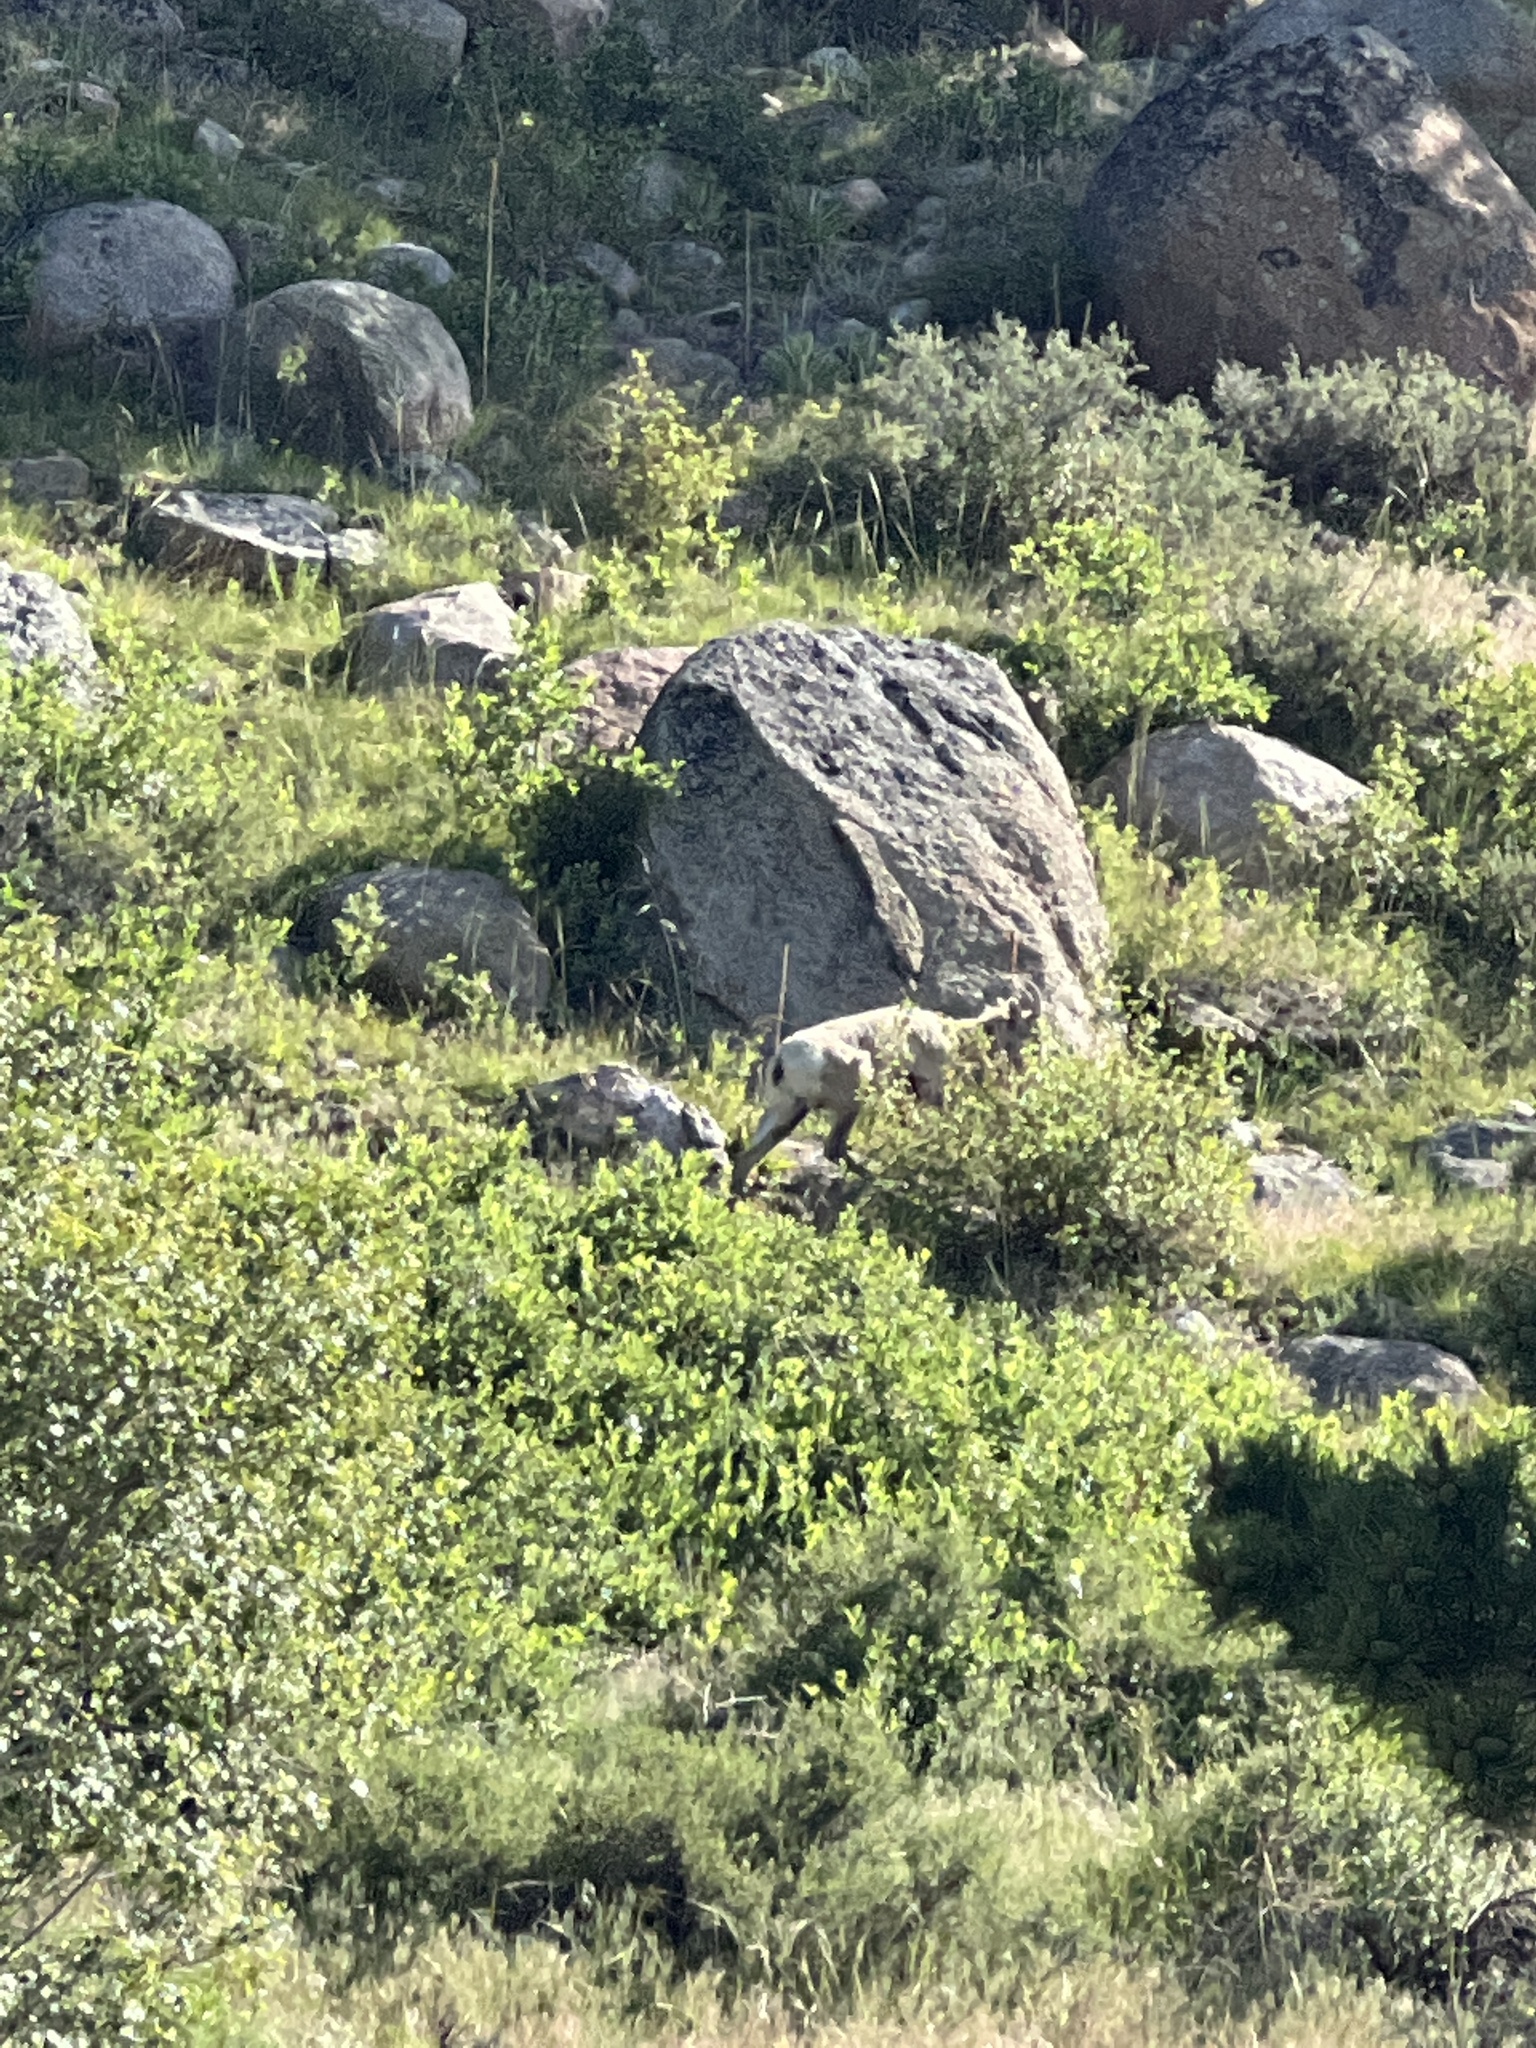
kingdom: Animalia
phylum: Chordata
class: Mammalia
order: Artiodactyla
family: Bovidae
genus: Ovis
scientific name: Ovis canadensis
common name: Bighorn sheep
